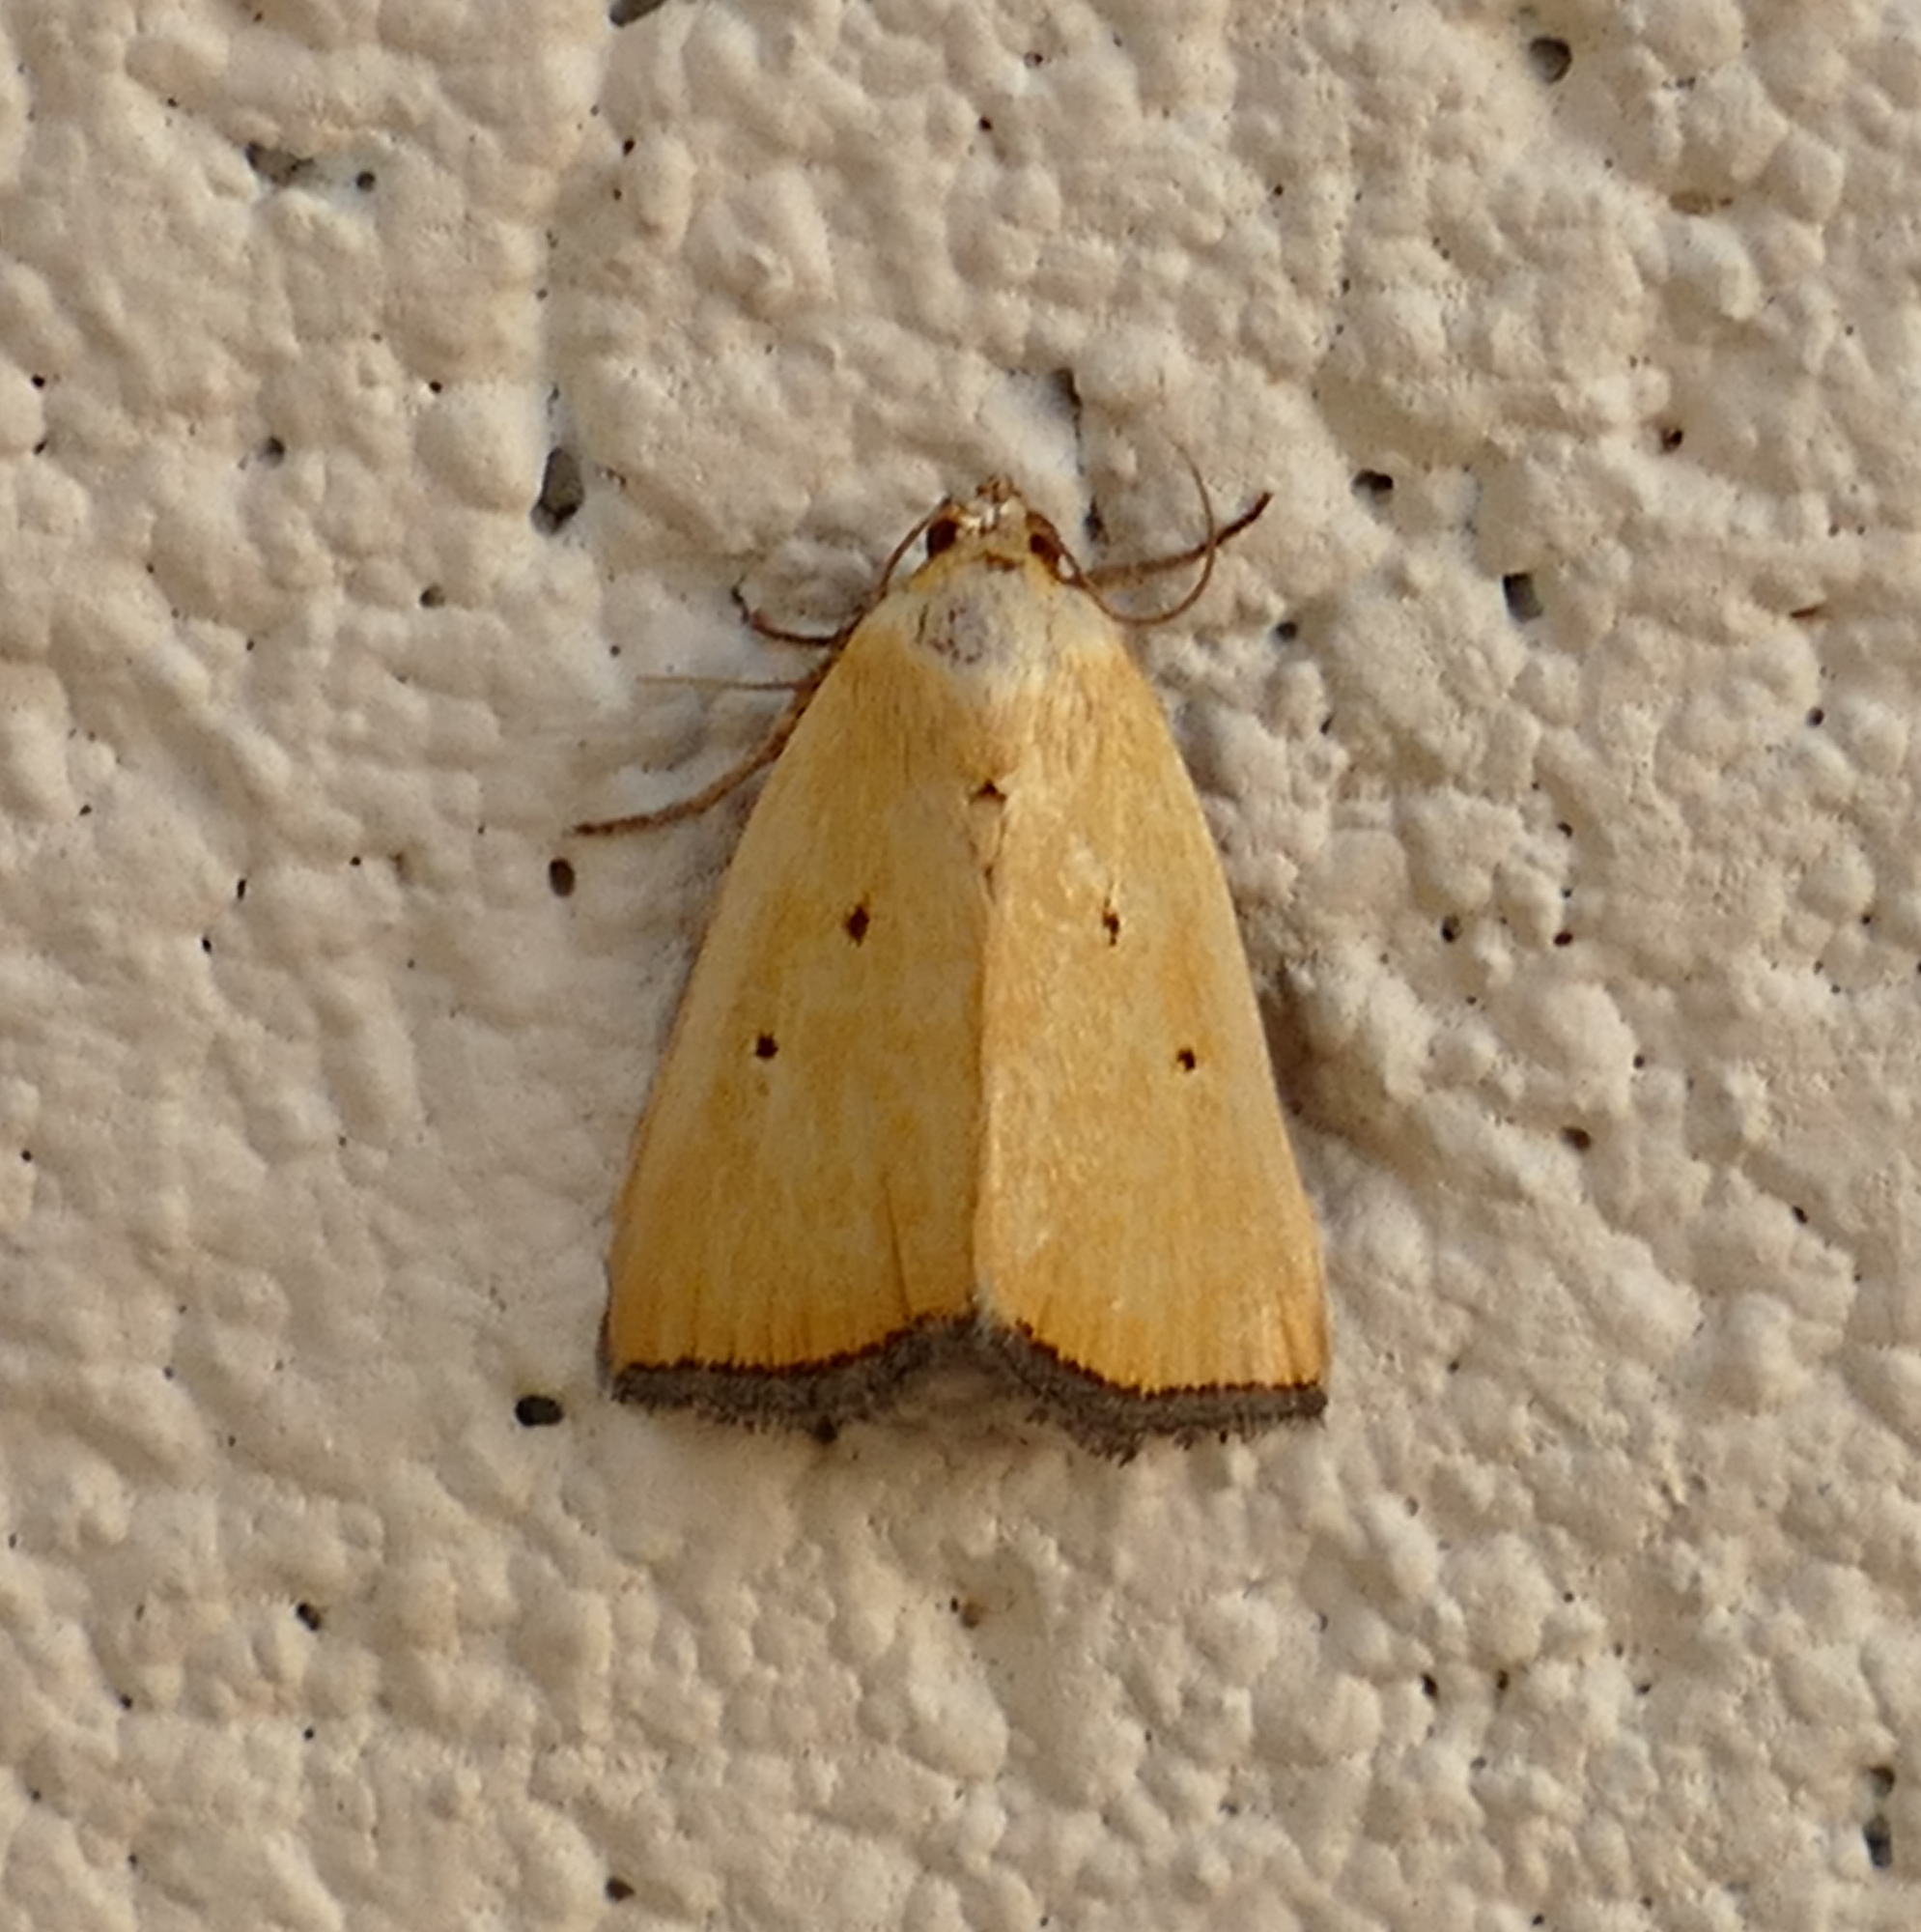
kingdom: Animalia
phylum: Arthropoda
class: Insecta
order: Lepidoptera
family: Noctuidae
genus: Marimatha
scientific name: Marimatha nigrofimbria
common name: Black-bordered lemon moth
